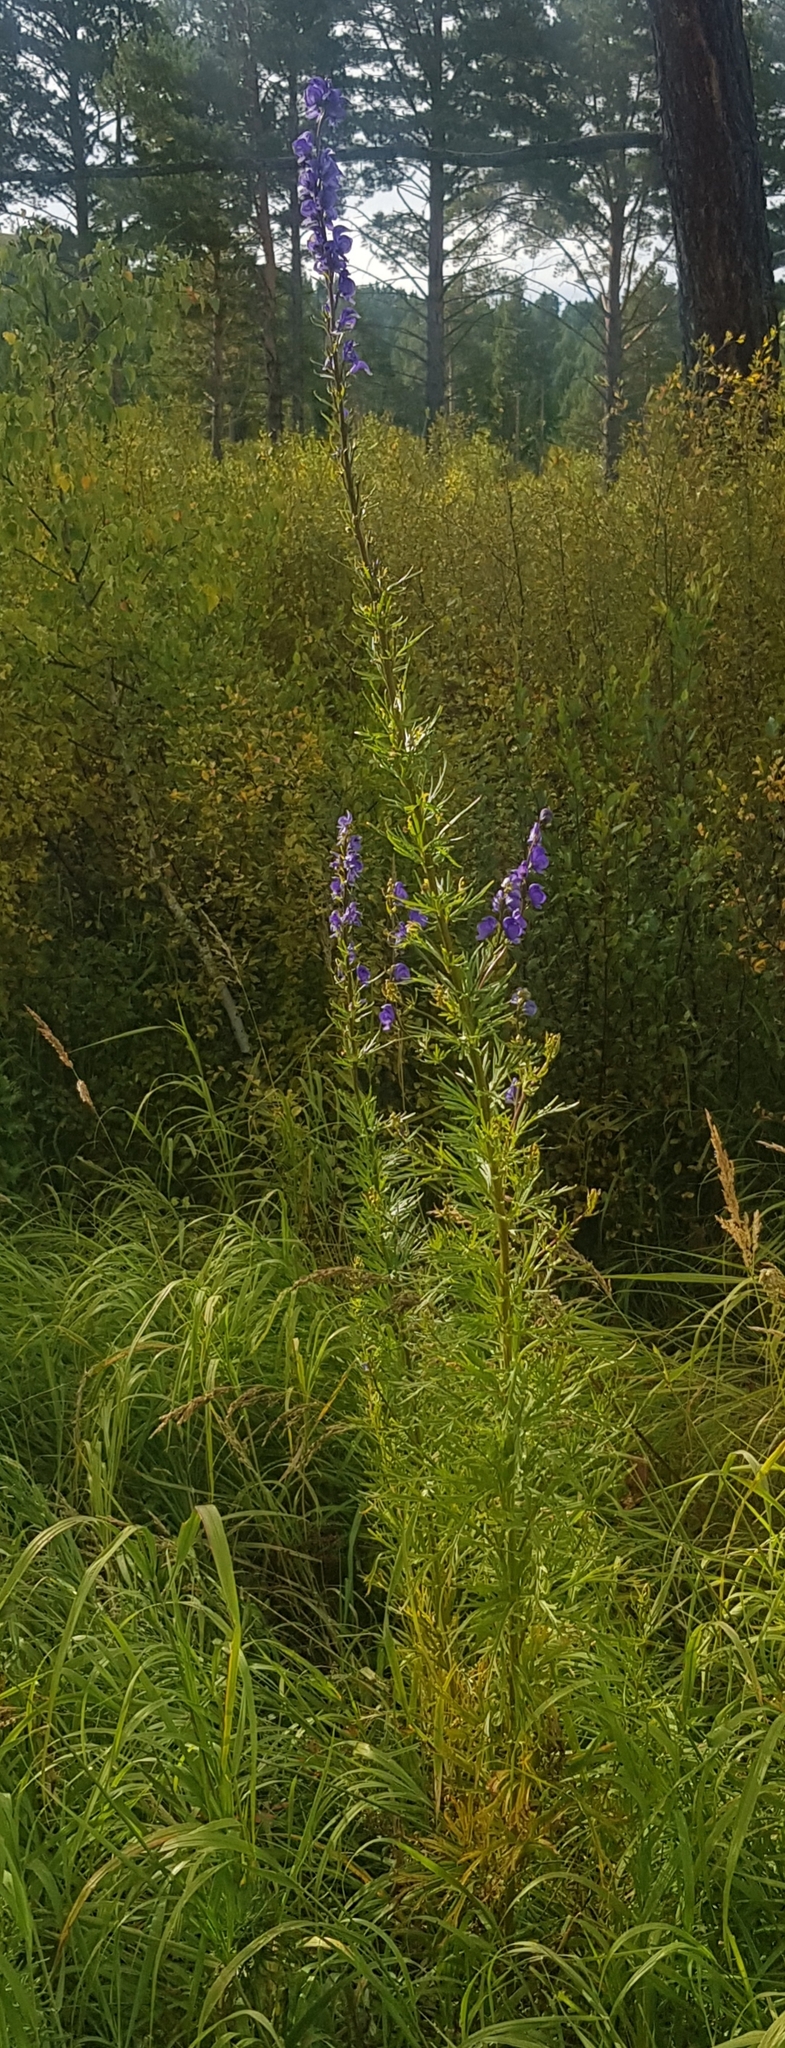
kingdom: Plantae
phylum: Tracheophyta
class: Magnoliopsida
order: Ranunculales
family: Ranunculaceae
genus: Aconitum
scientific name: Aconitum baicalense
